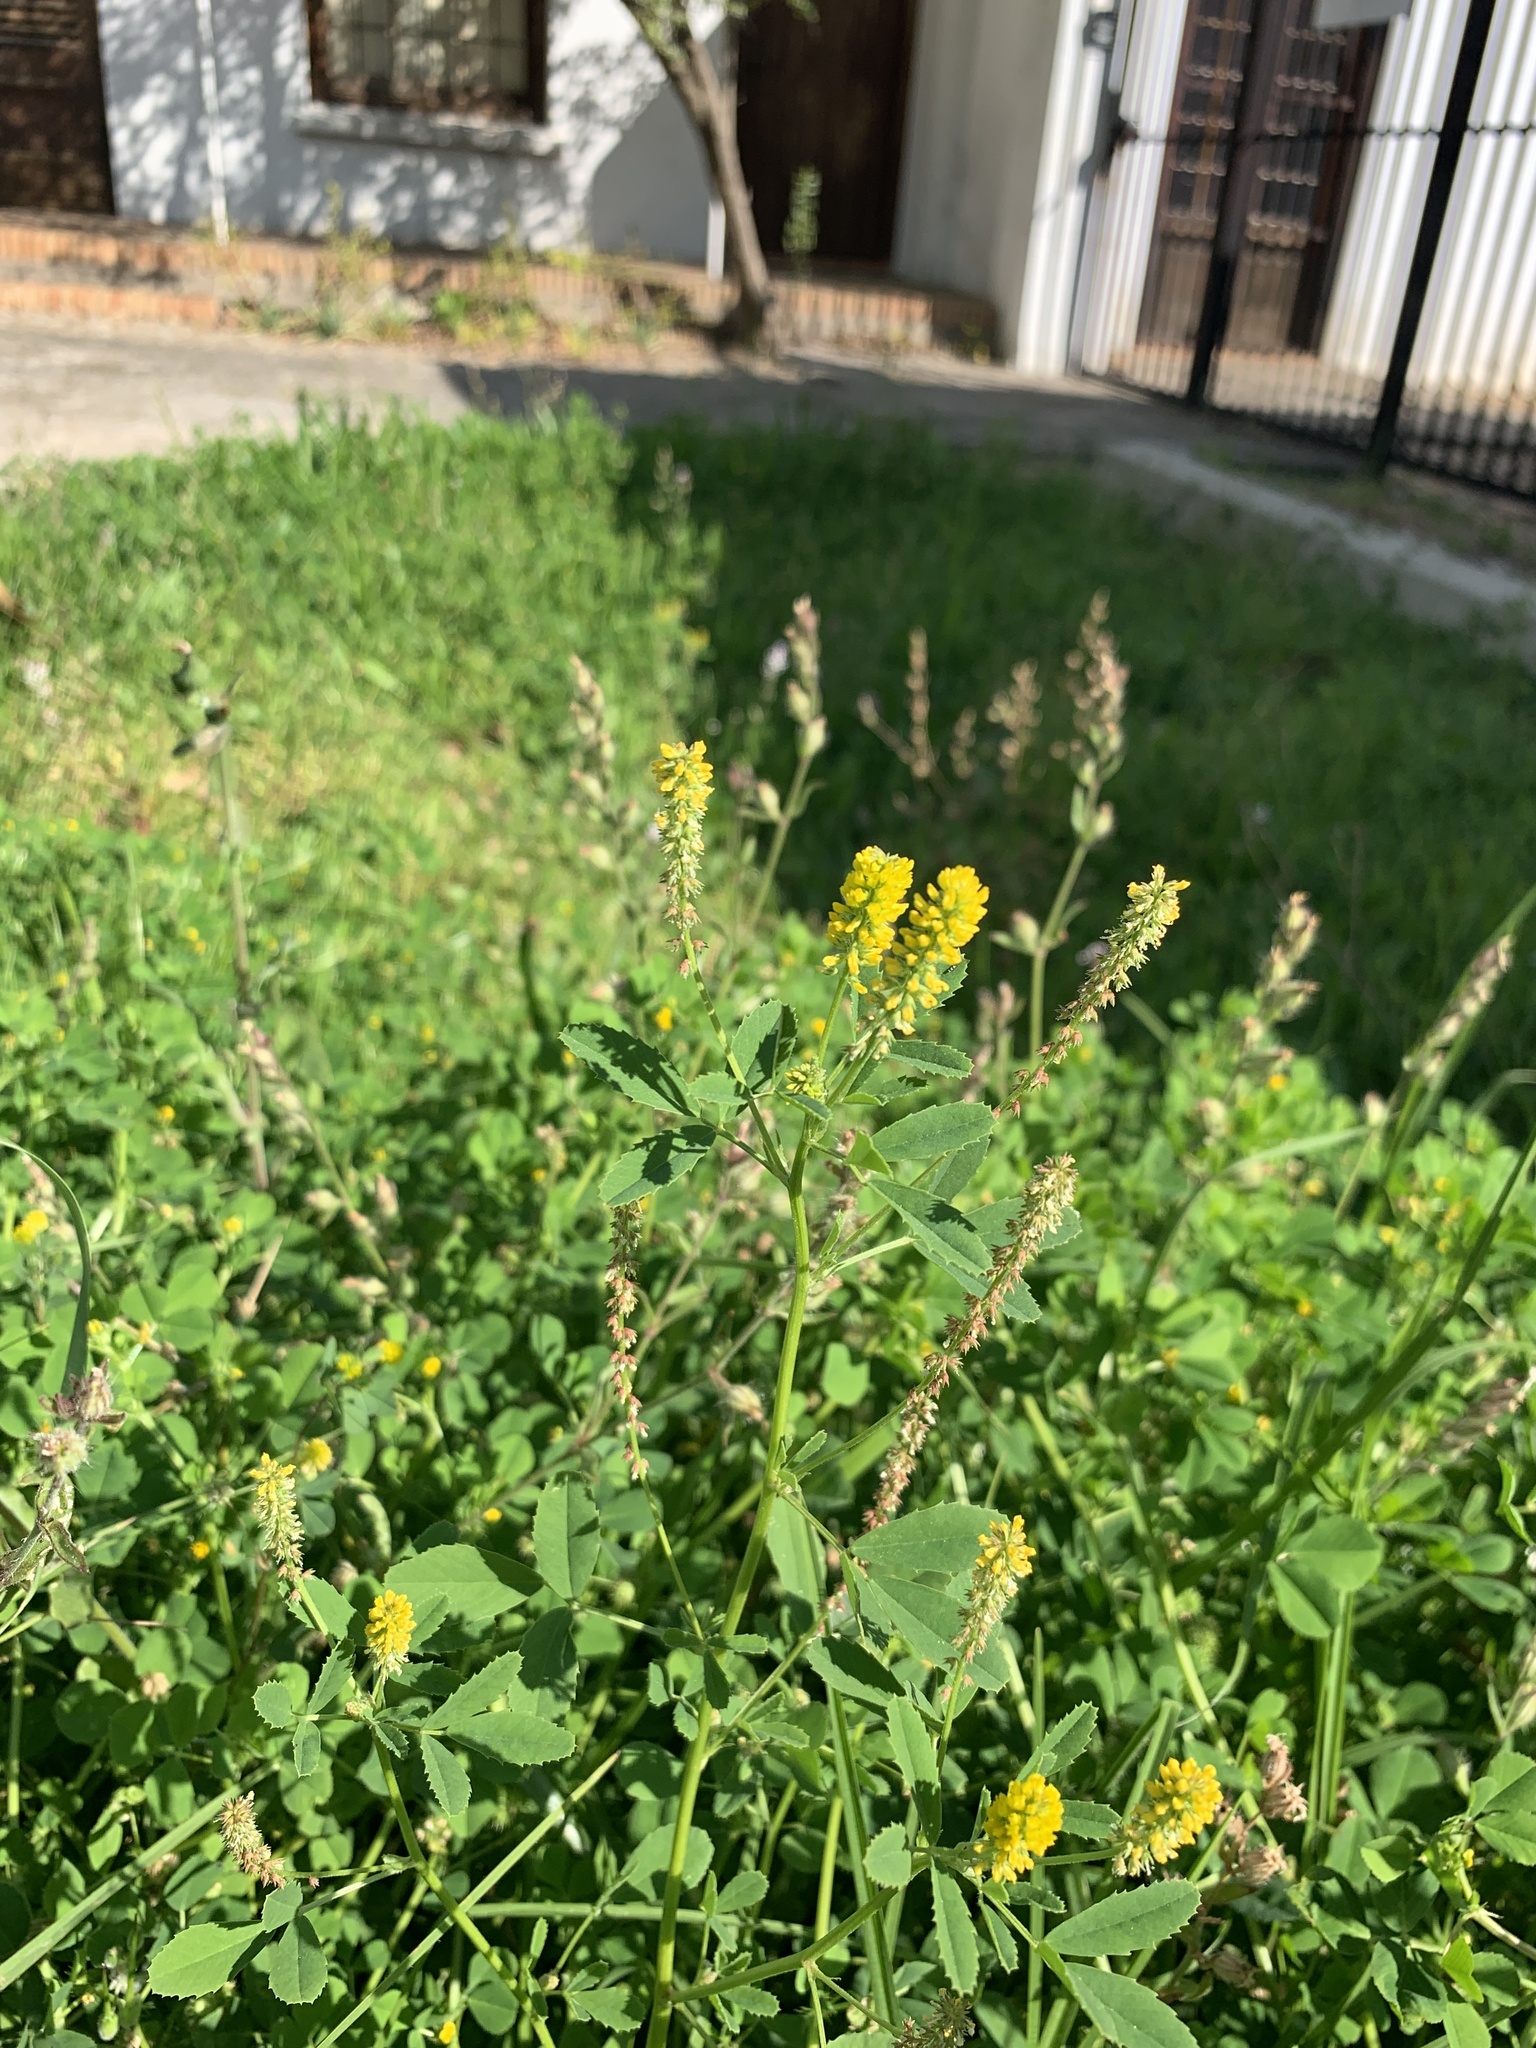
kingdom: Plantae
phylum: Tracheophyta
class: Magnoliopsida
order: Fabales
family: Fabaceae
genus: Melilotus
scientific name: Melilotus indicus
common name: Small melilot
